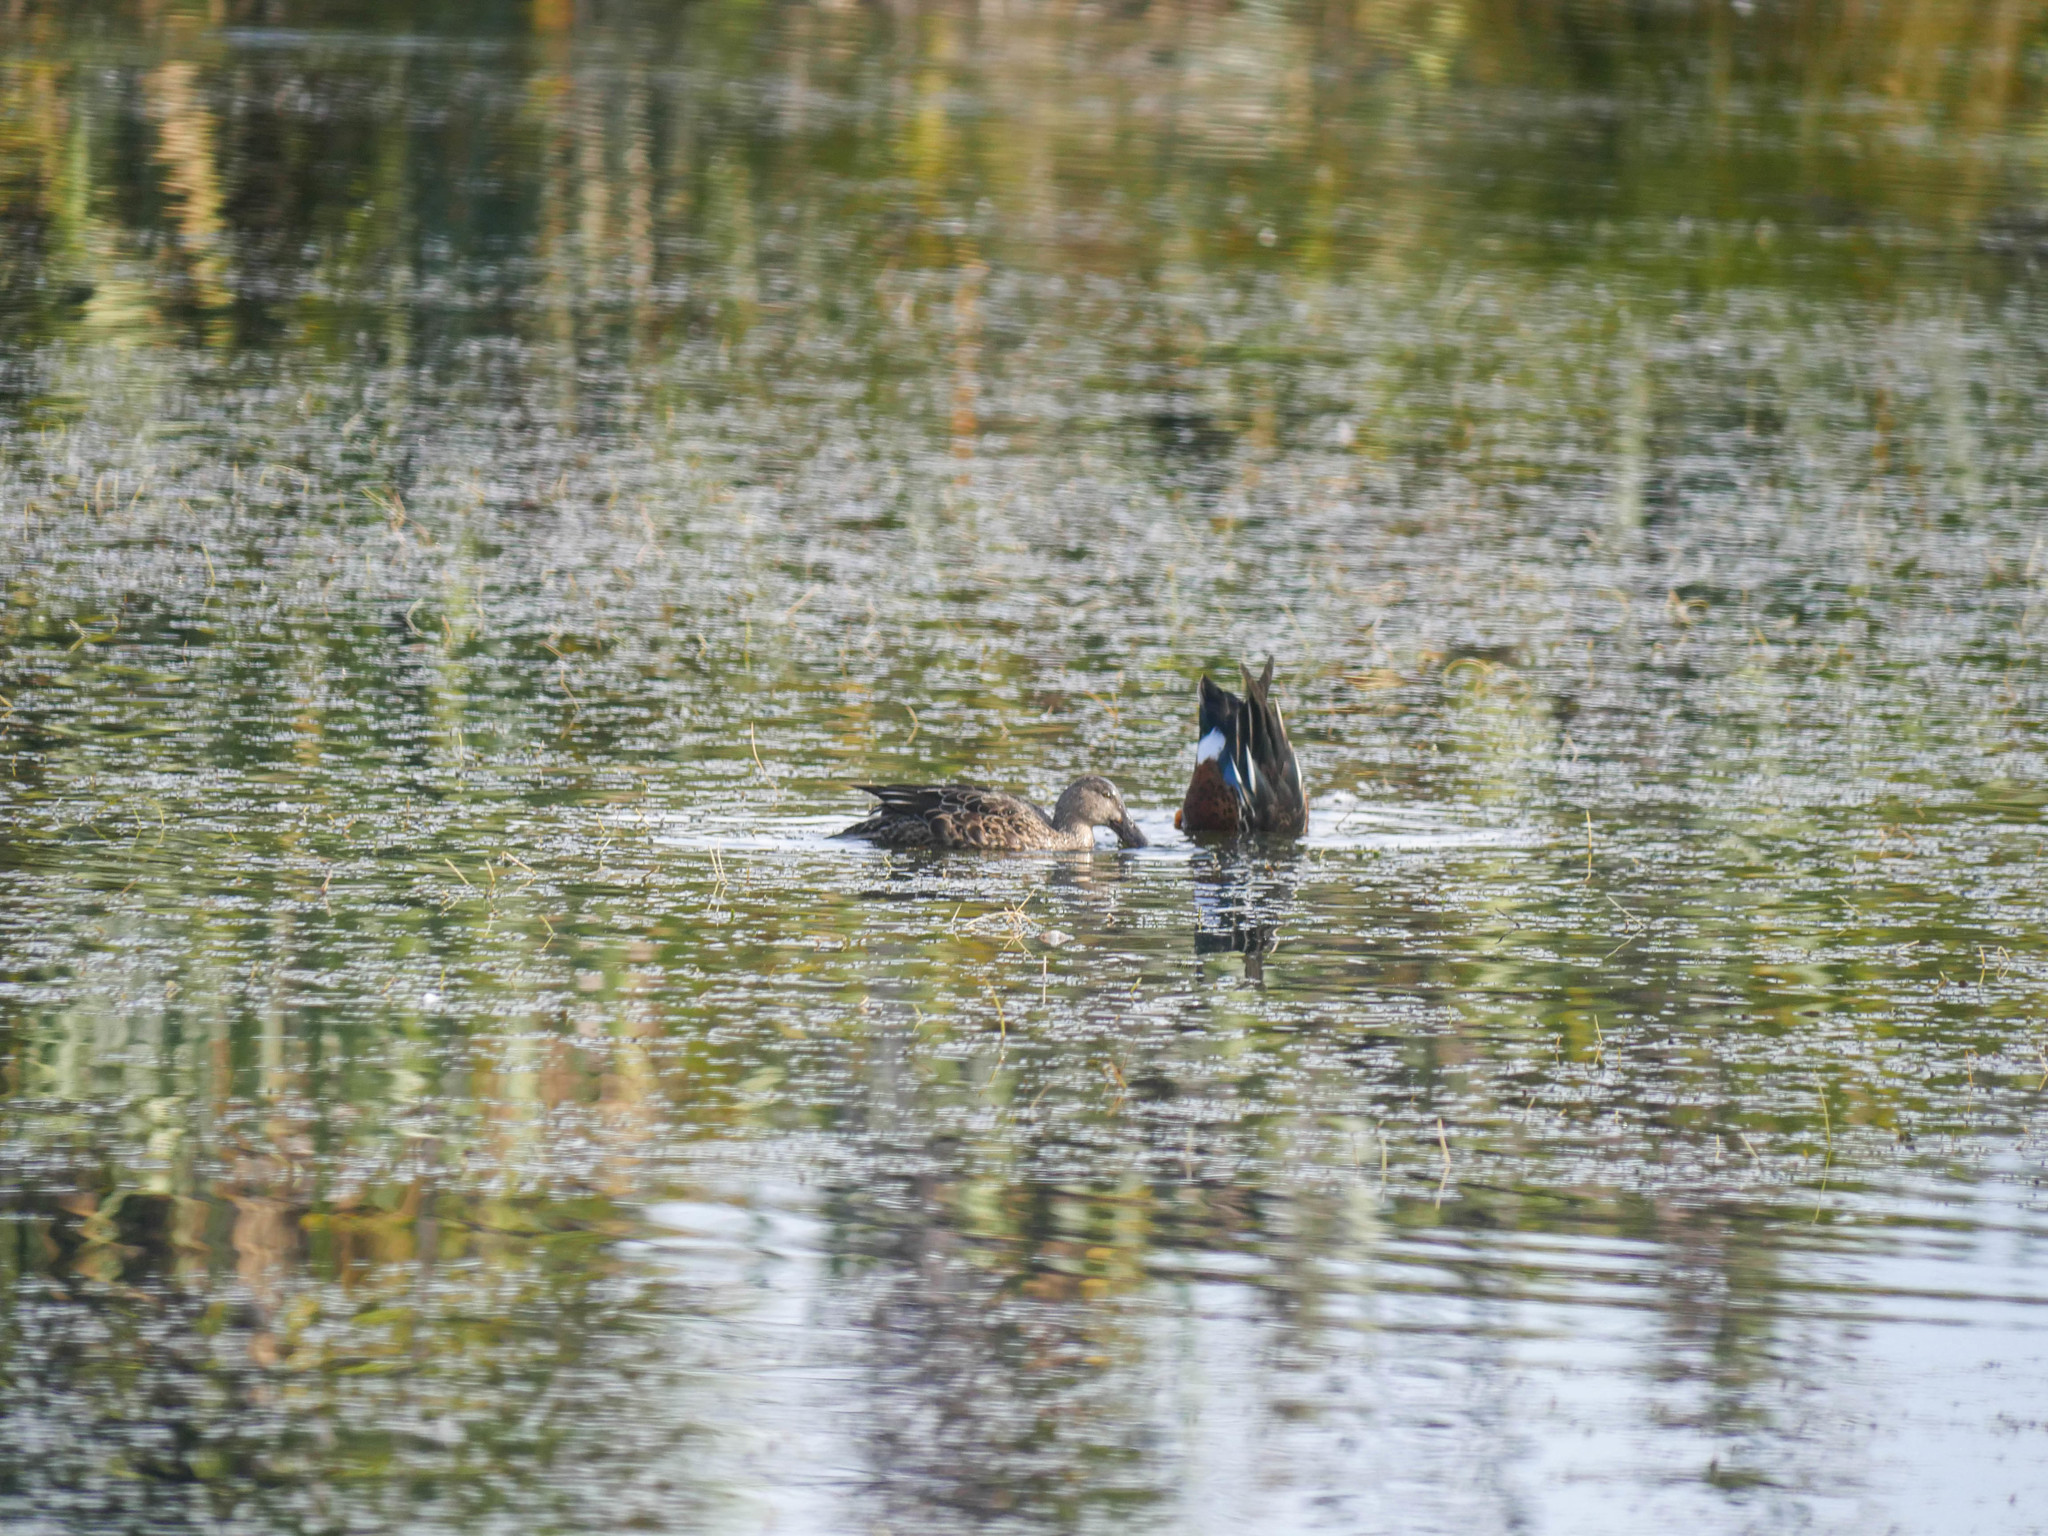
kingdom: Animalia
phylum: Chordata
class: Aves
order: Anseriformes
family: Anatidae
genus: Spatula
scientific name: Spatula rhynchotis
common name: Australian shoveler
